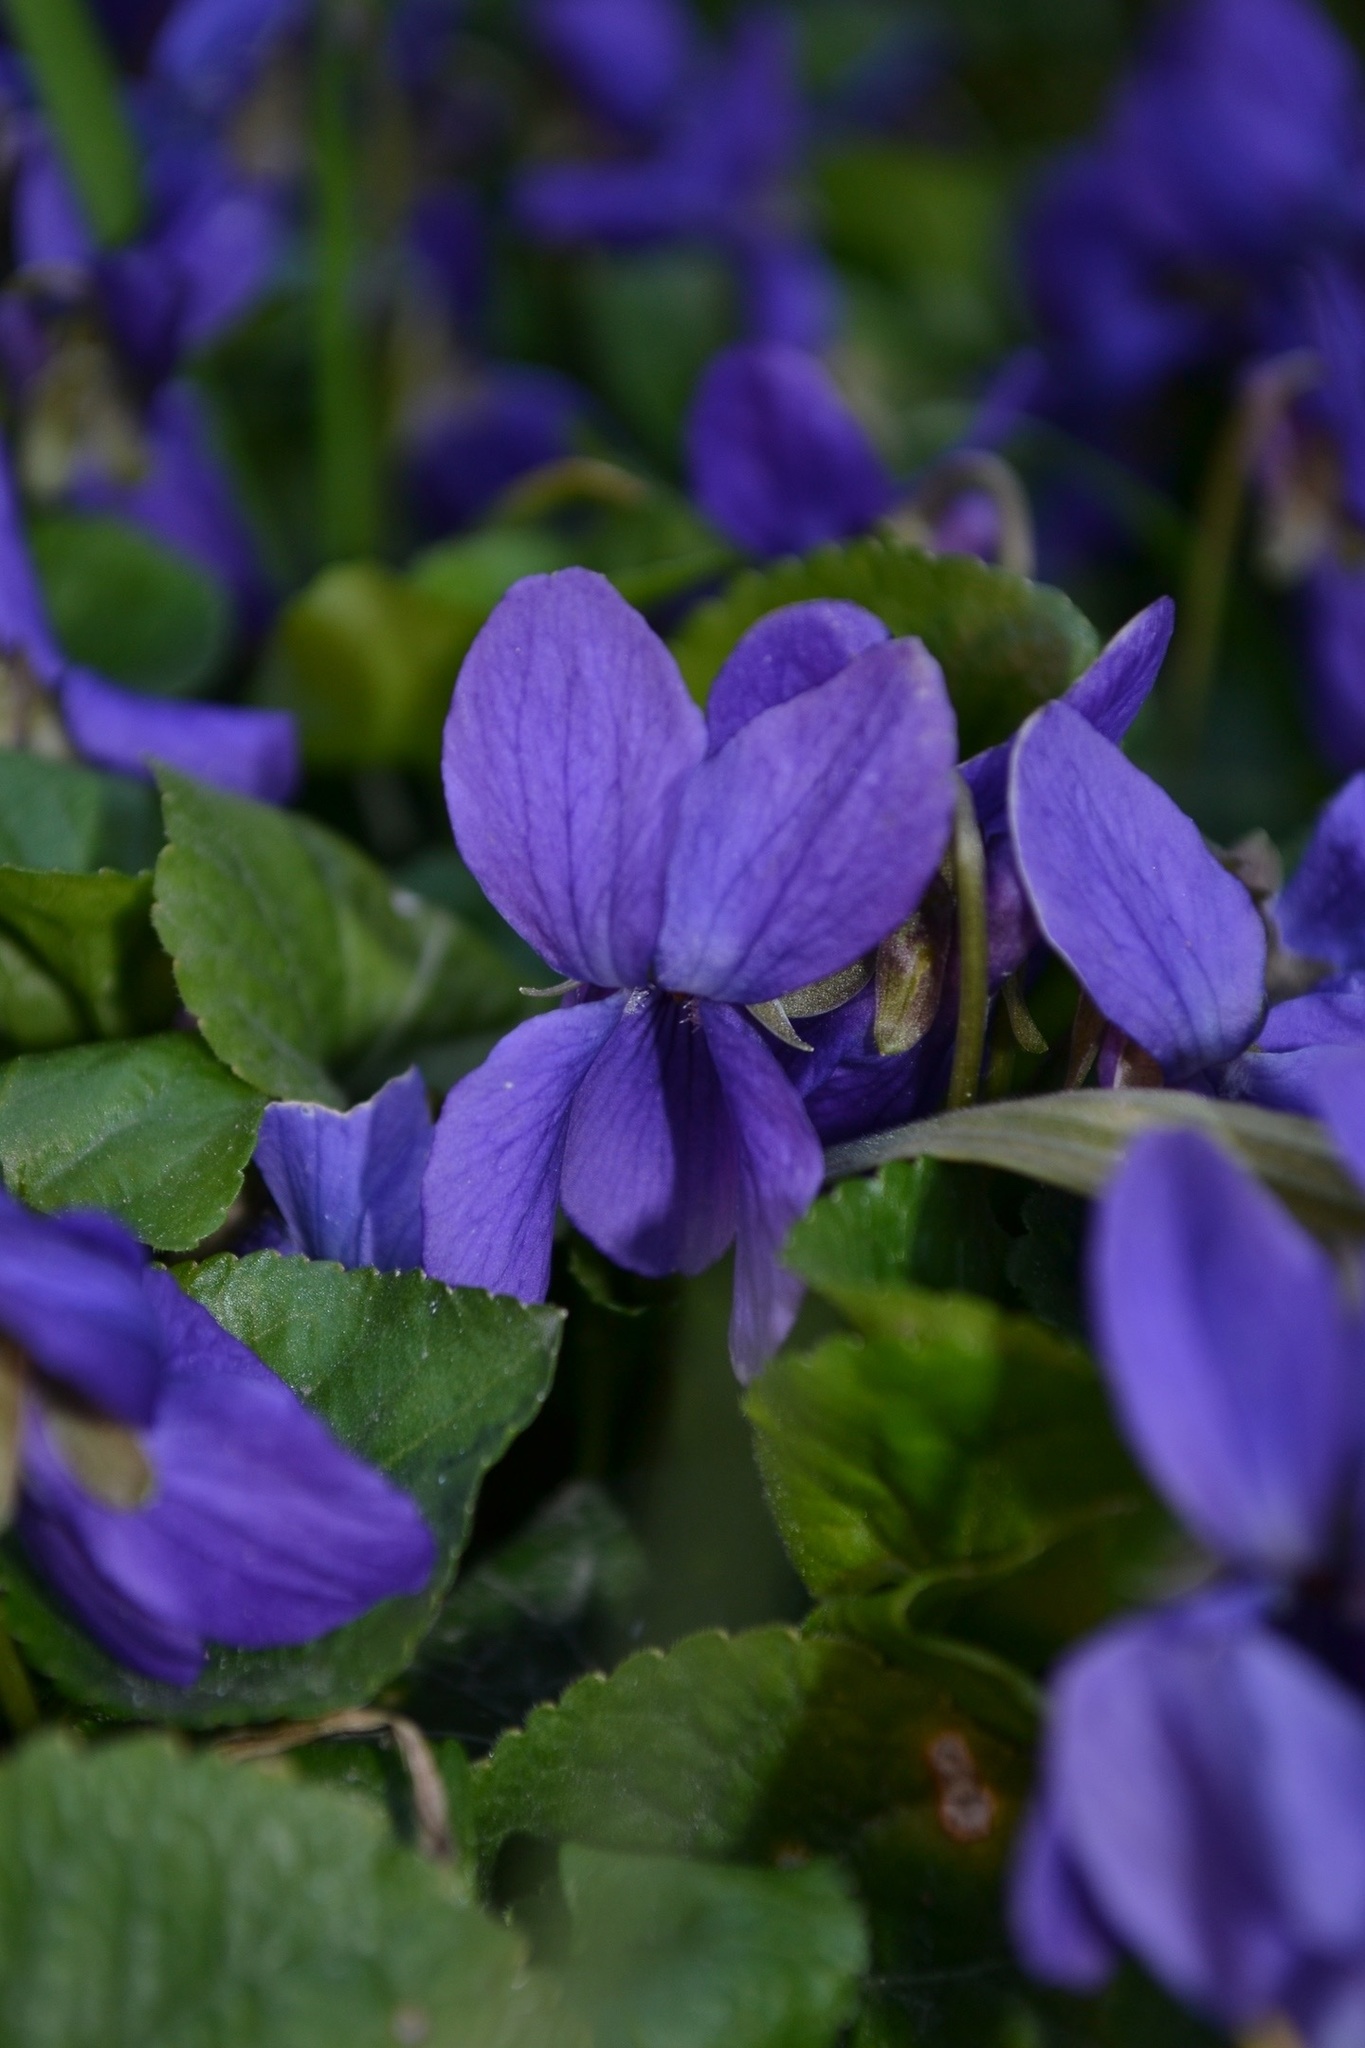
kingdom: Plantae
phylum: Tracheophyta
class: Magnoliopsida
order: Malpighiales
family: Violaceae
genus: Viola
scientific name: Viola odorata
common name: Sweet violet
